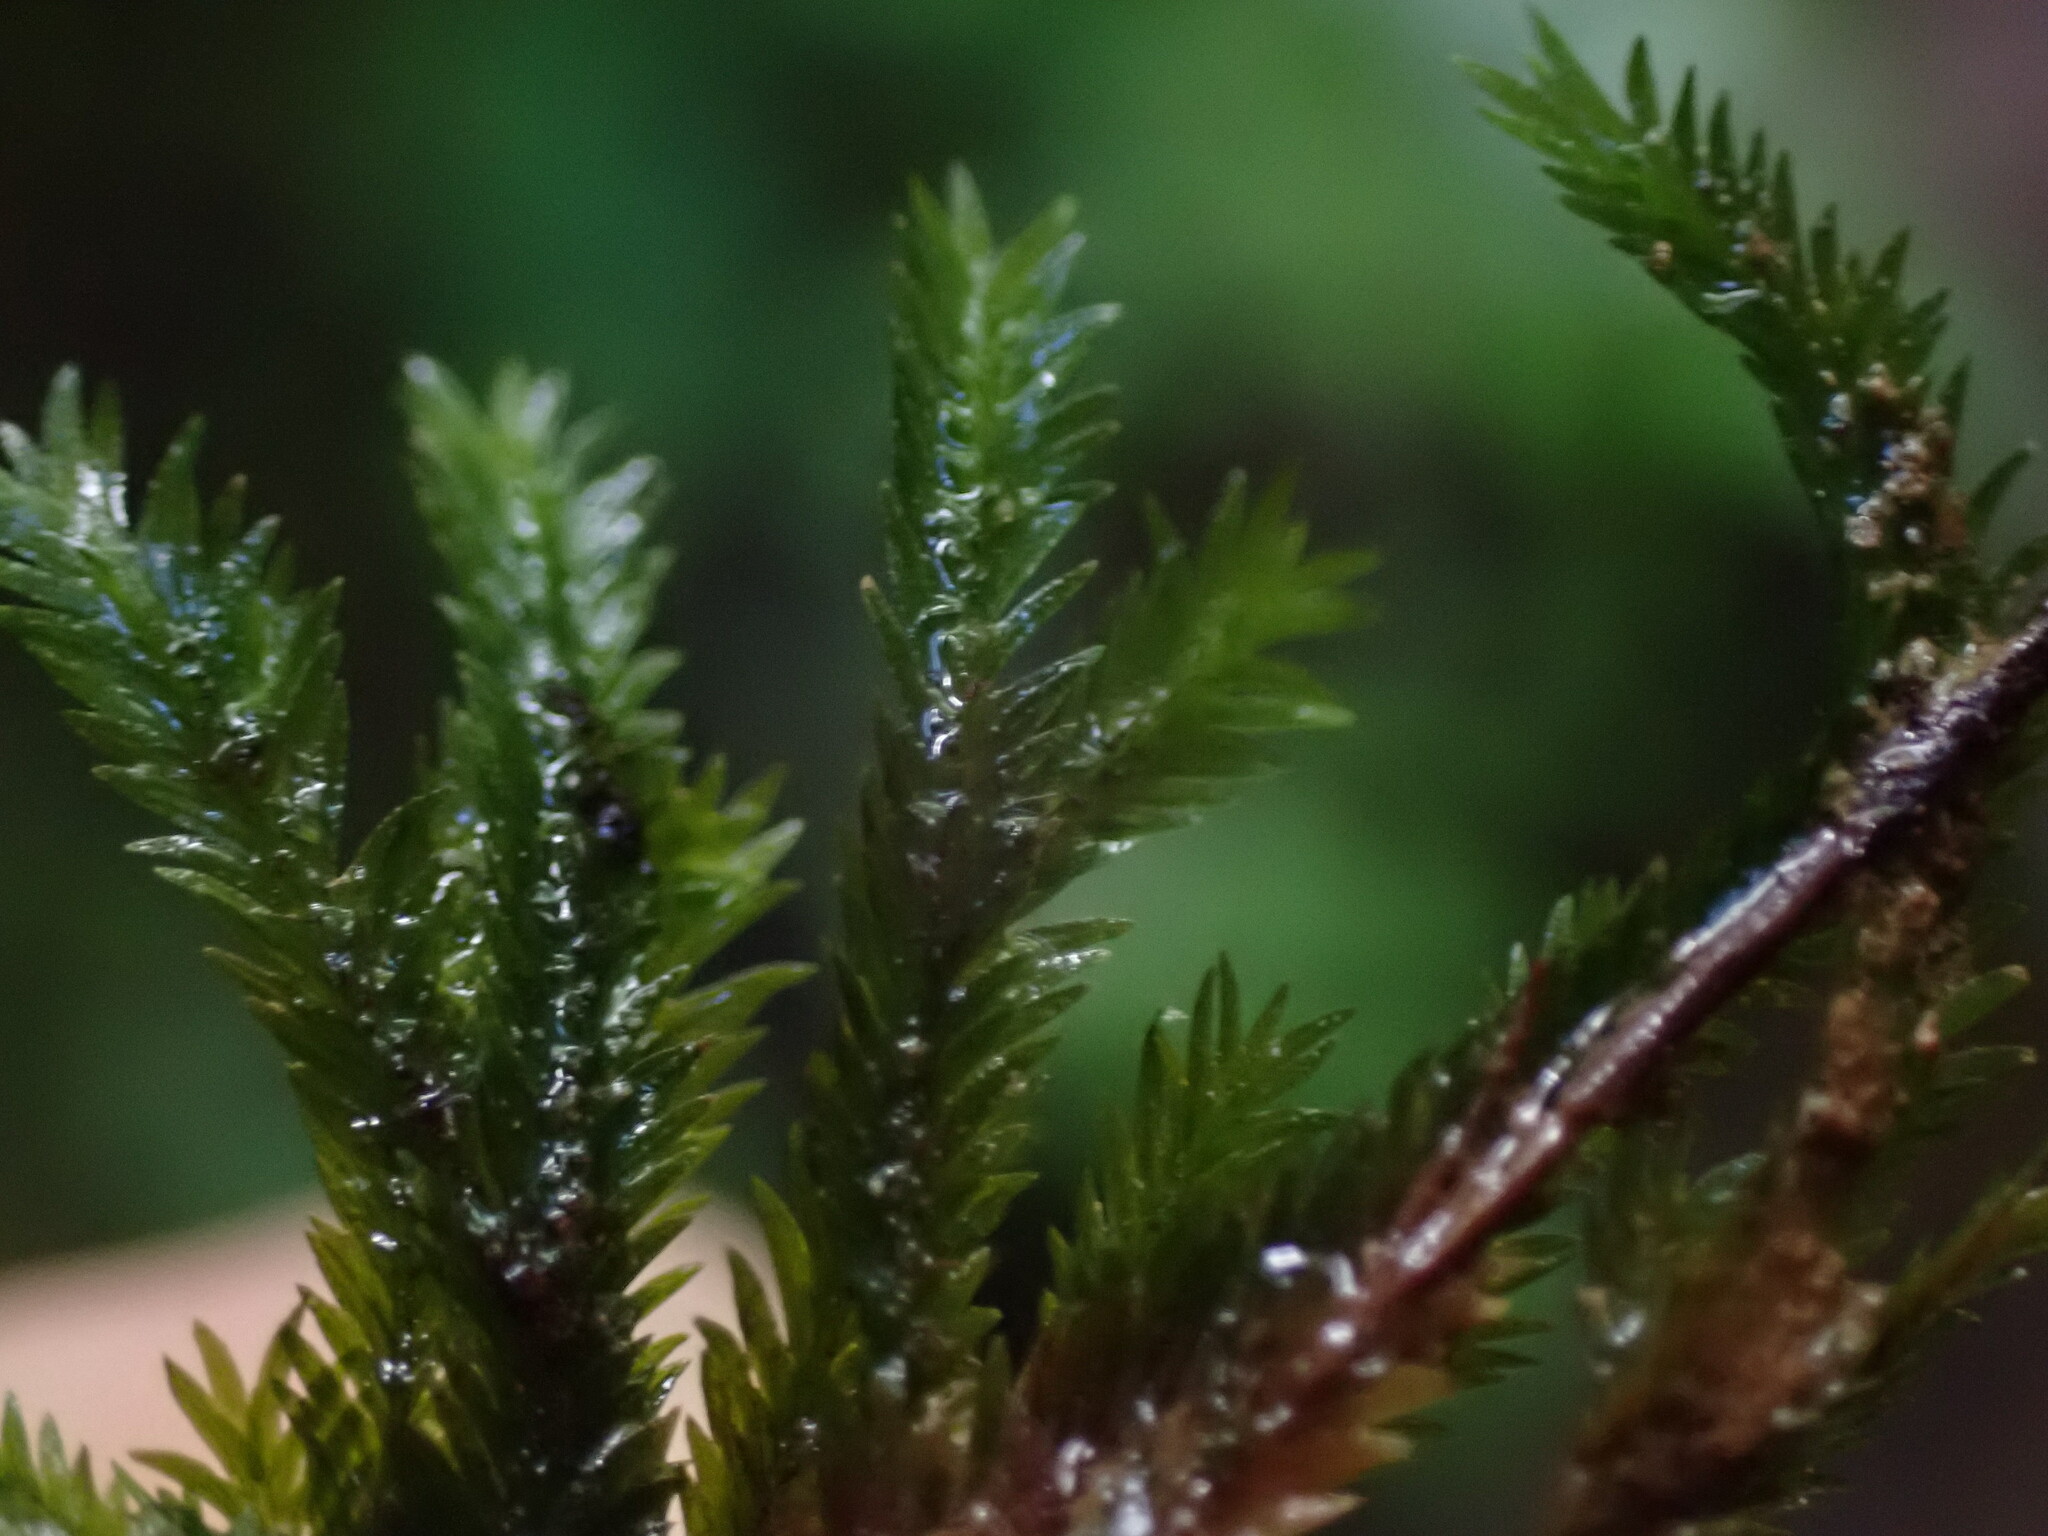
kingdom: Plantae
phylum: Bryophyta
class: Bryopsida
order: Dicranales
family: Fissidentaceae
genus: Fissidens
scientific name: Fissidens grandifrons
